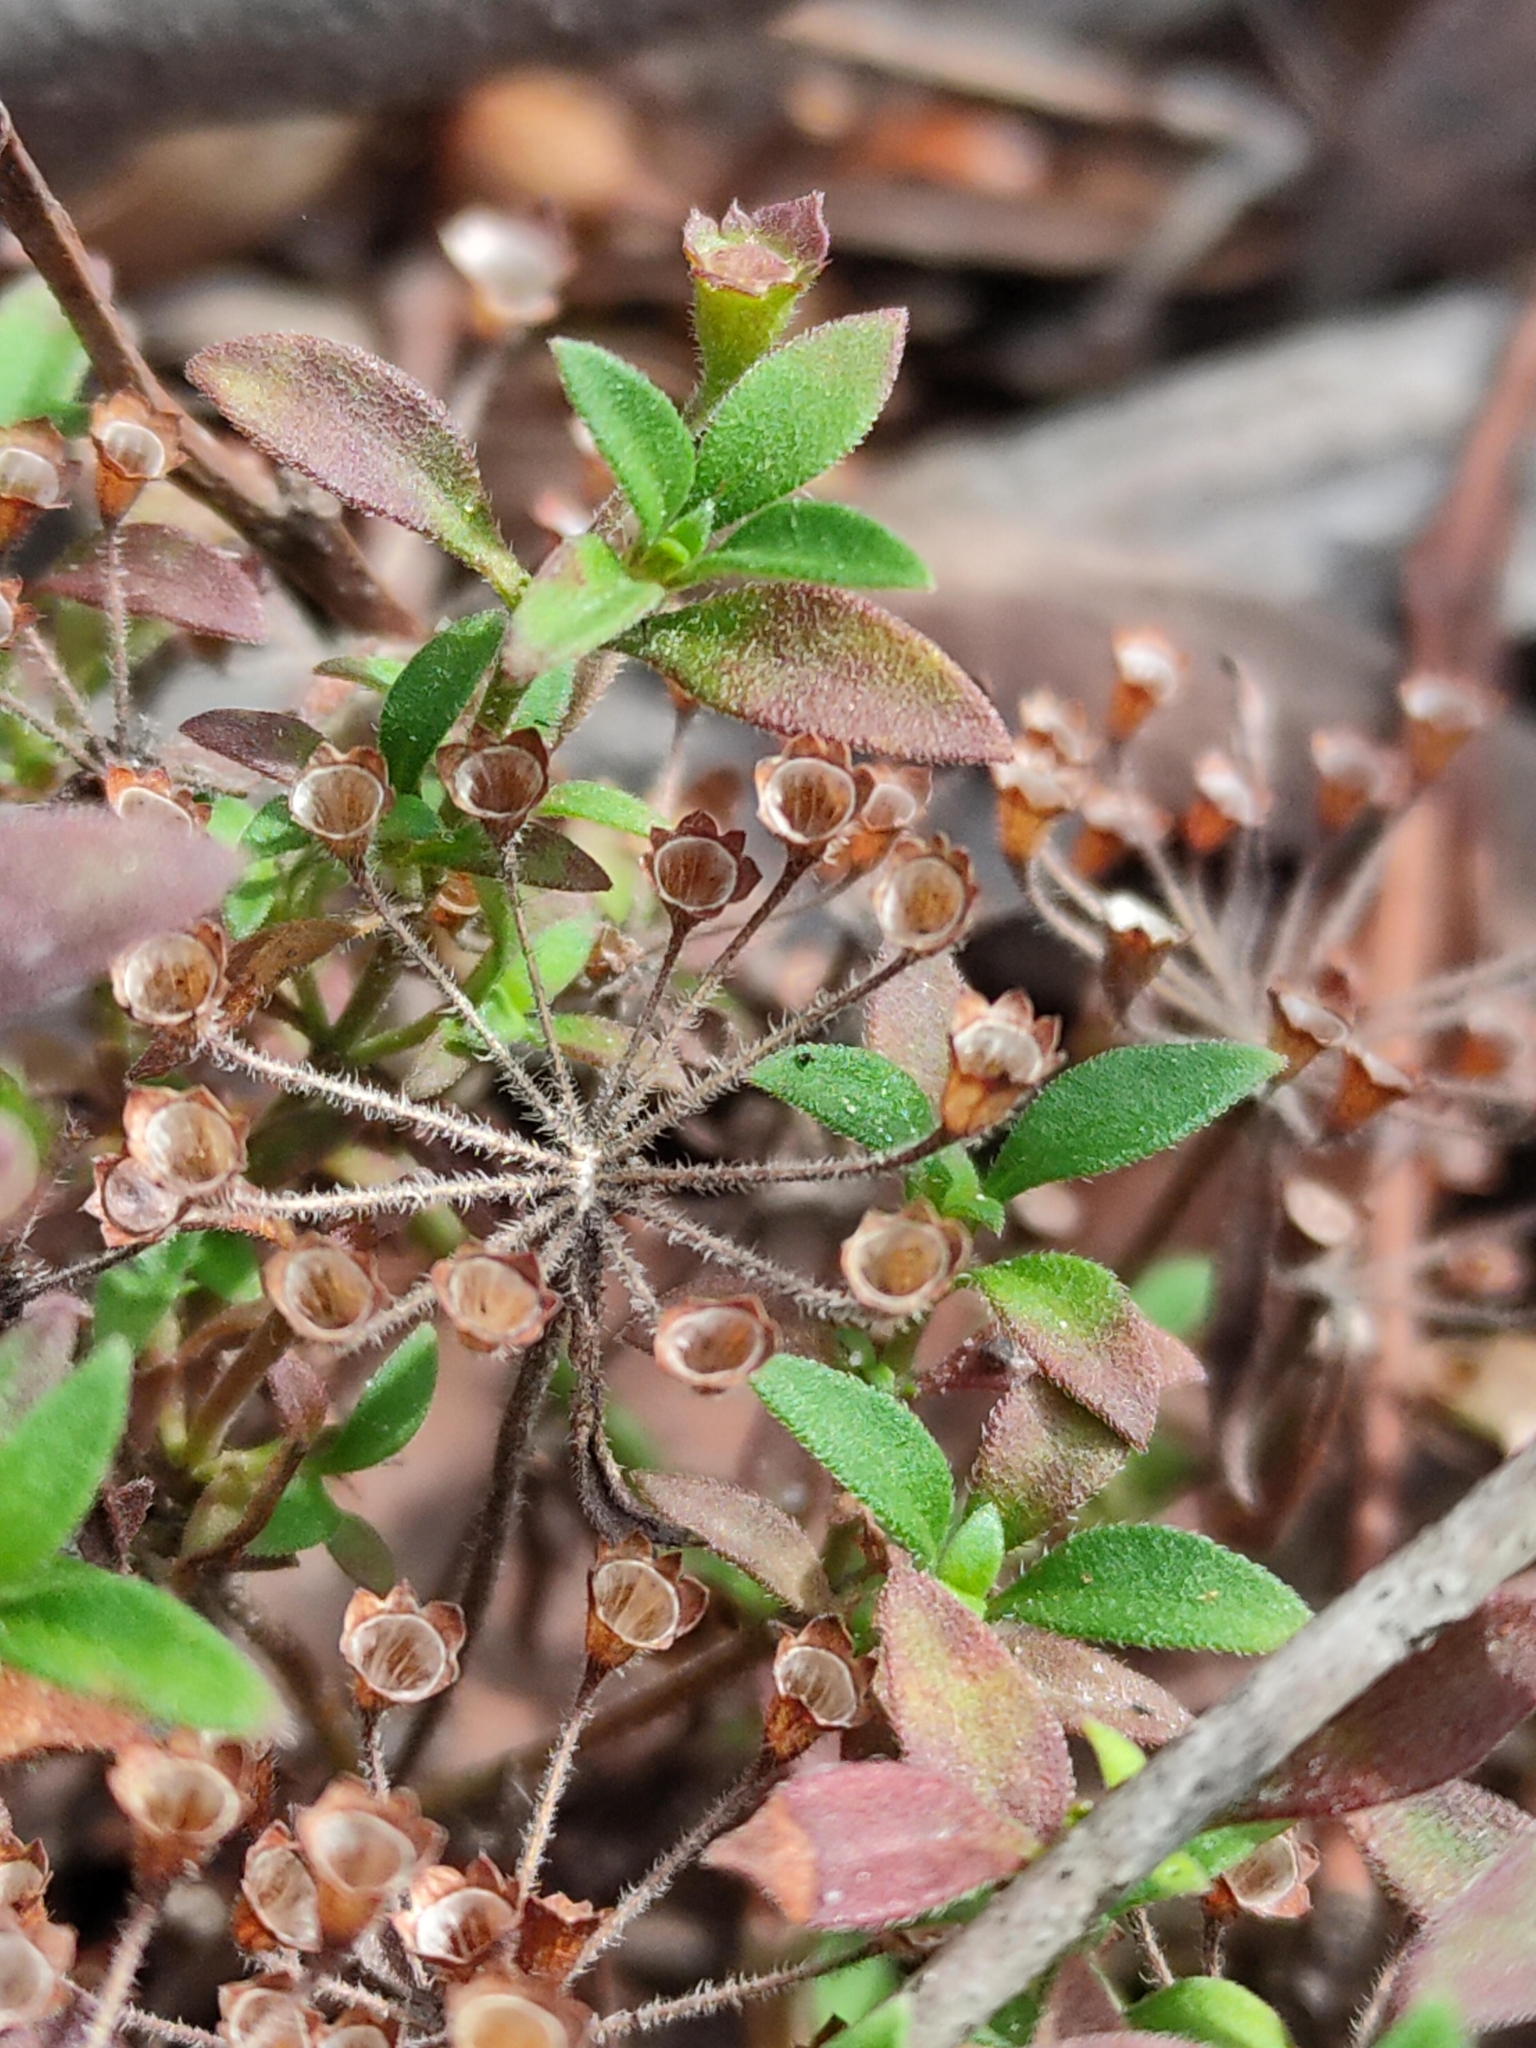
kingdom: Plantae
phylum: Tracheophyta
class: Magnoliopsida
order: Gentianales
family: Rubiaceae
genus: Pomax
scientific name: Pomax umbellata
